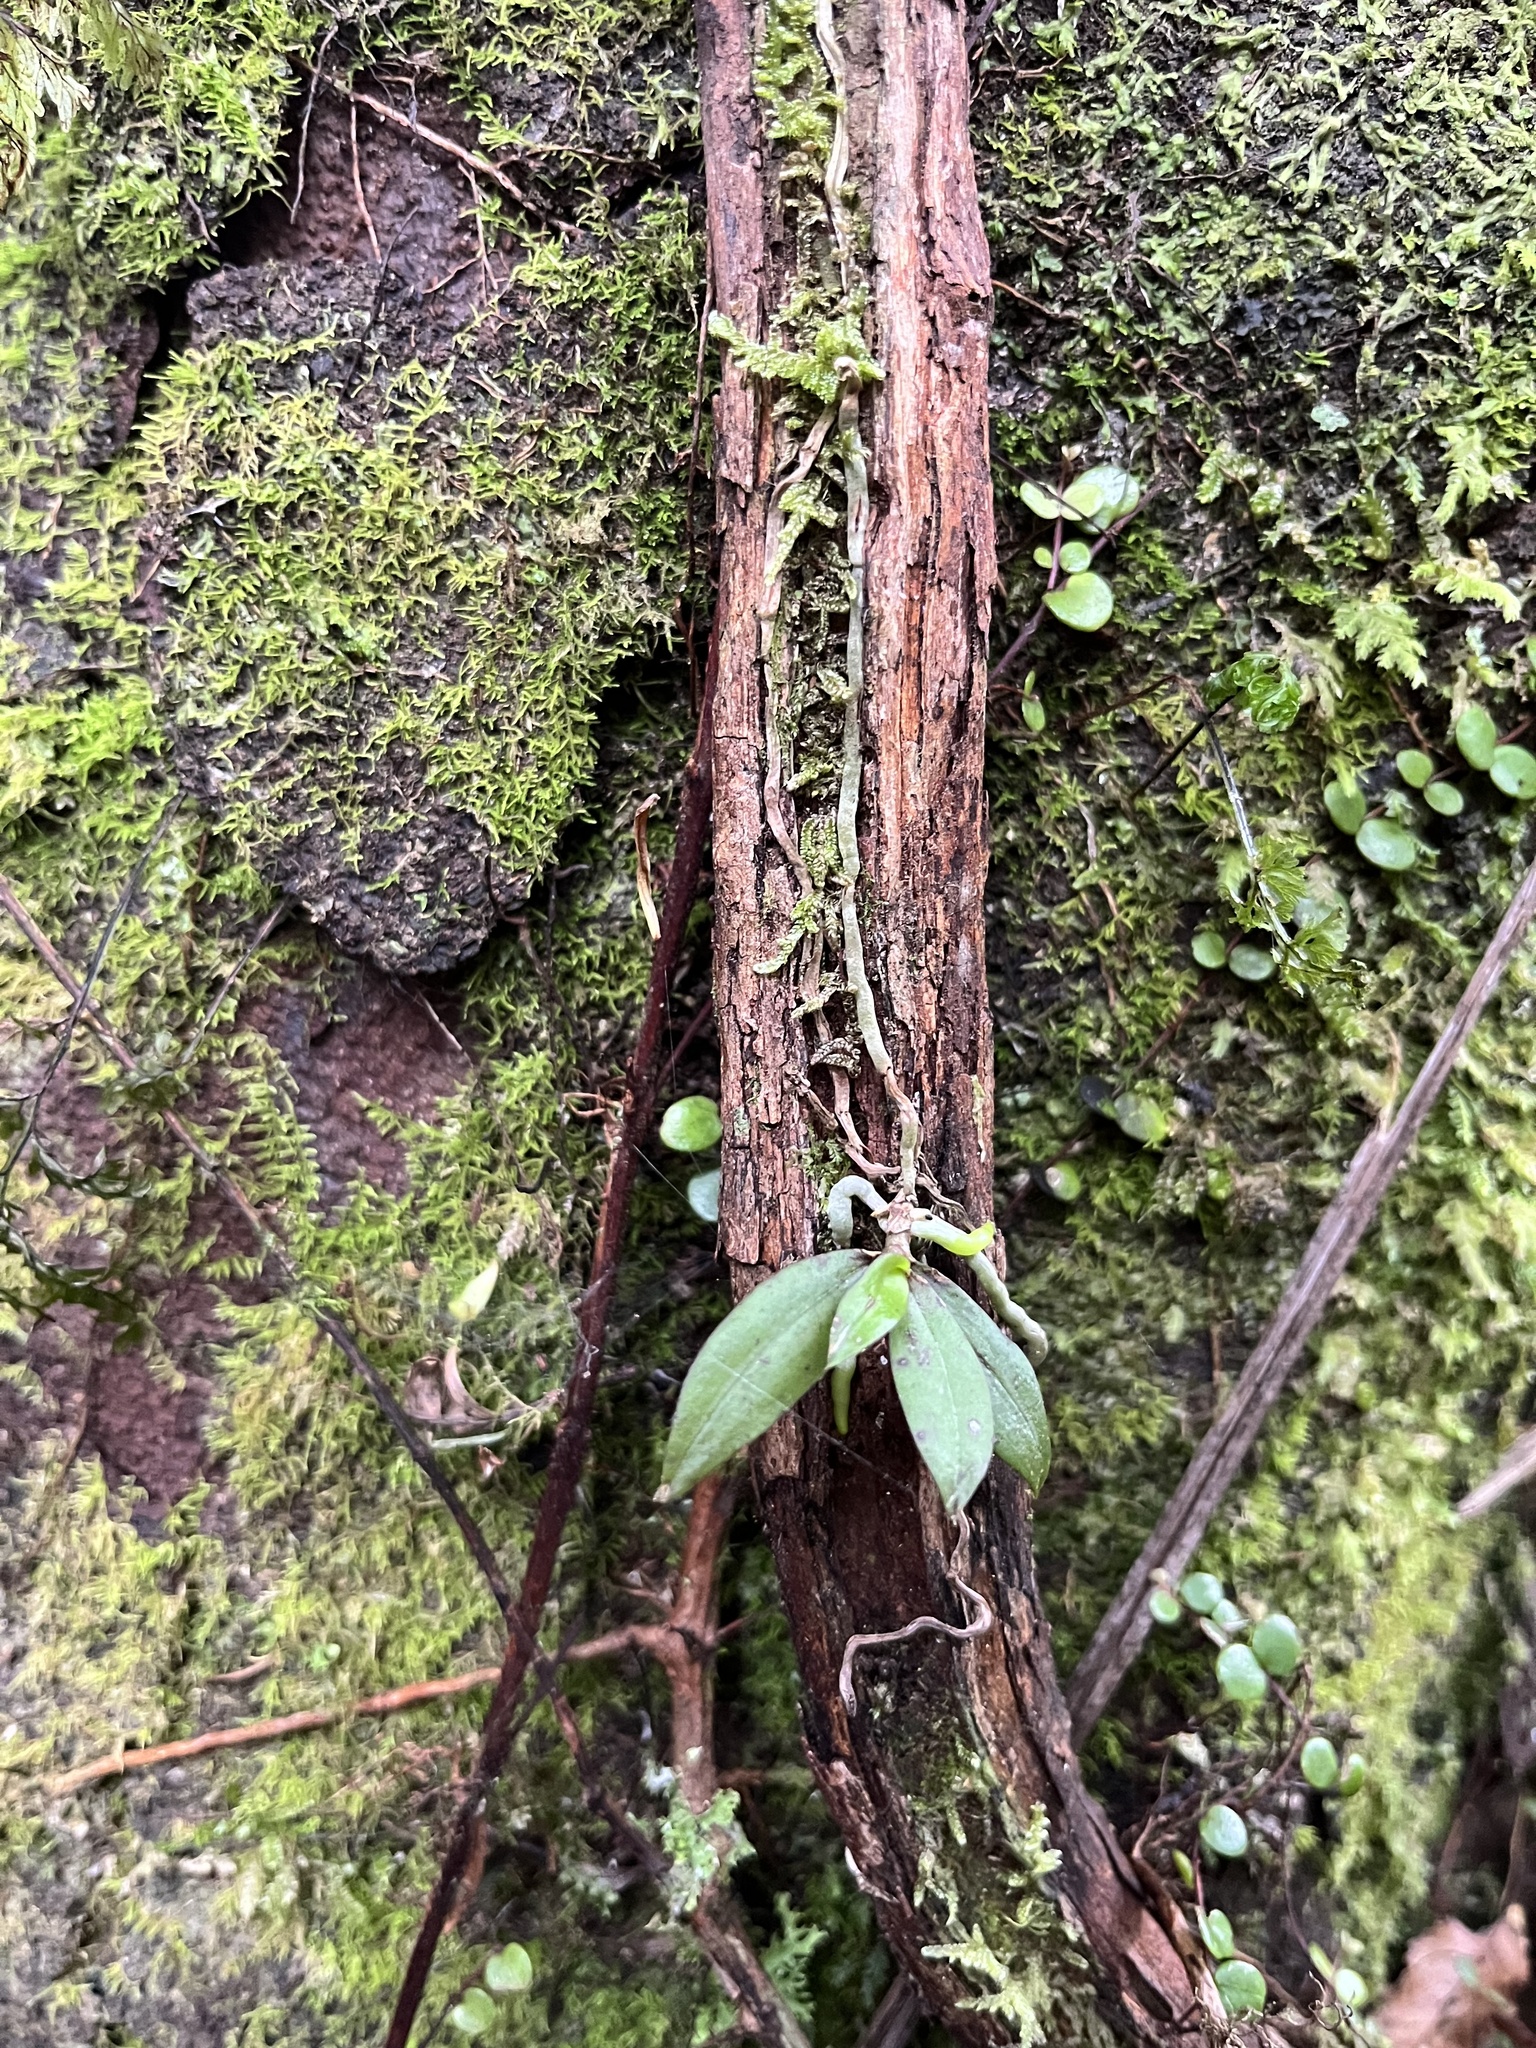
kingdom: Plantae
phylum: Tracheophyta
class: Liliopsida
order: Asparagales
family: Orchidaceae
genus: Drymoanthus
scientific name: Drymoanthus adversus
